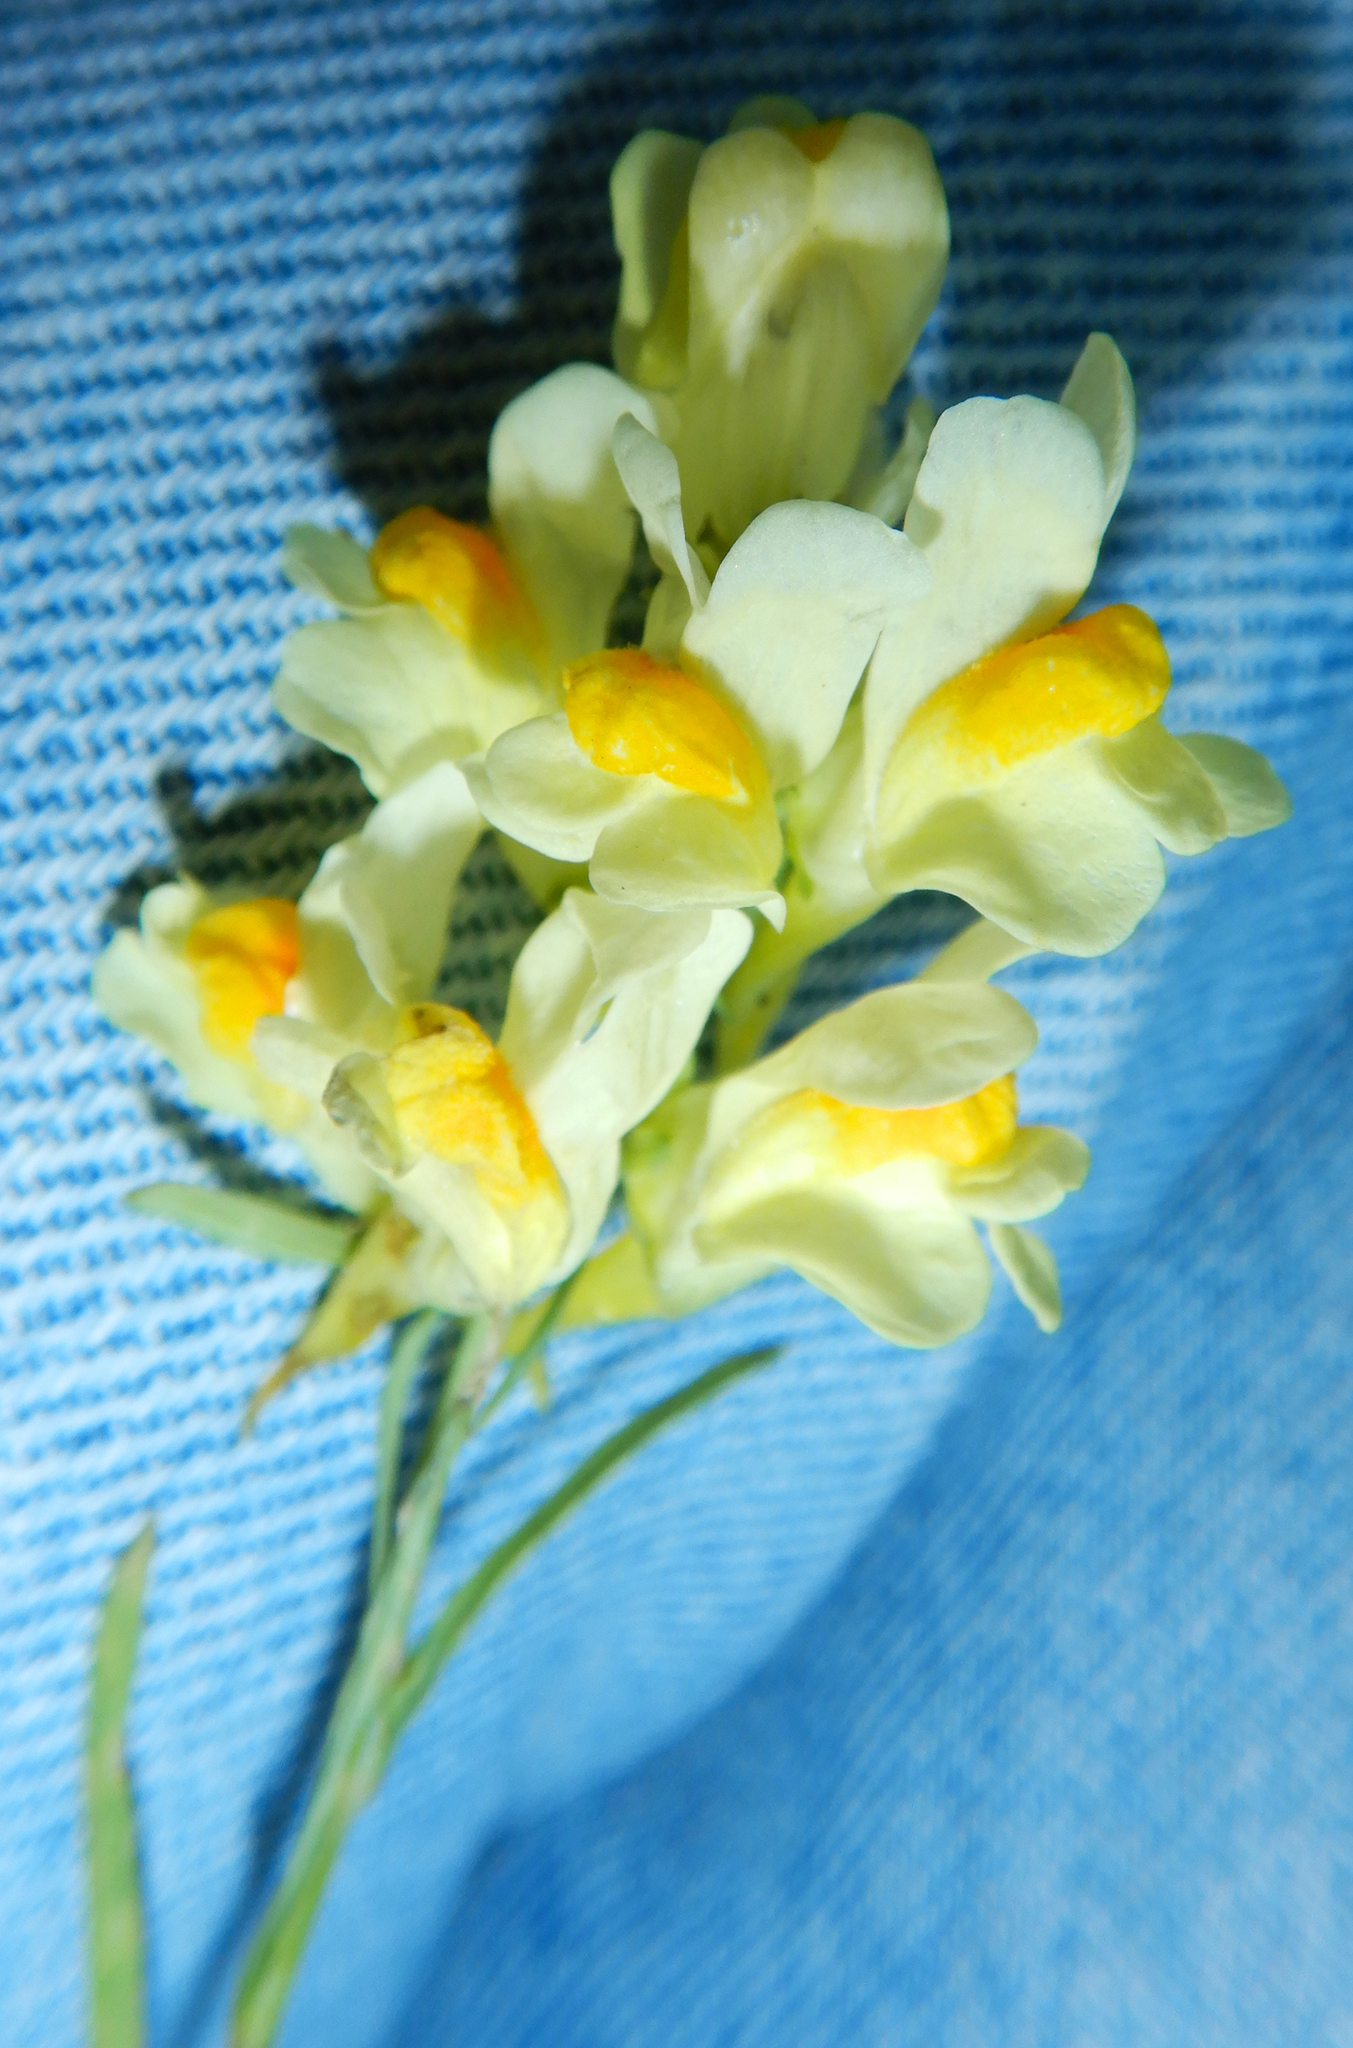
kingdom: Plantae
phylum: Tracheophyta
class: Magnoliopsida
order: Lamiales
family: Plantaginaceae
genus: Linaria
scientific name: Linaria vulgaris
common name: Butter and eggs
